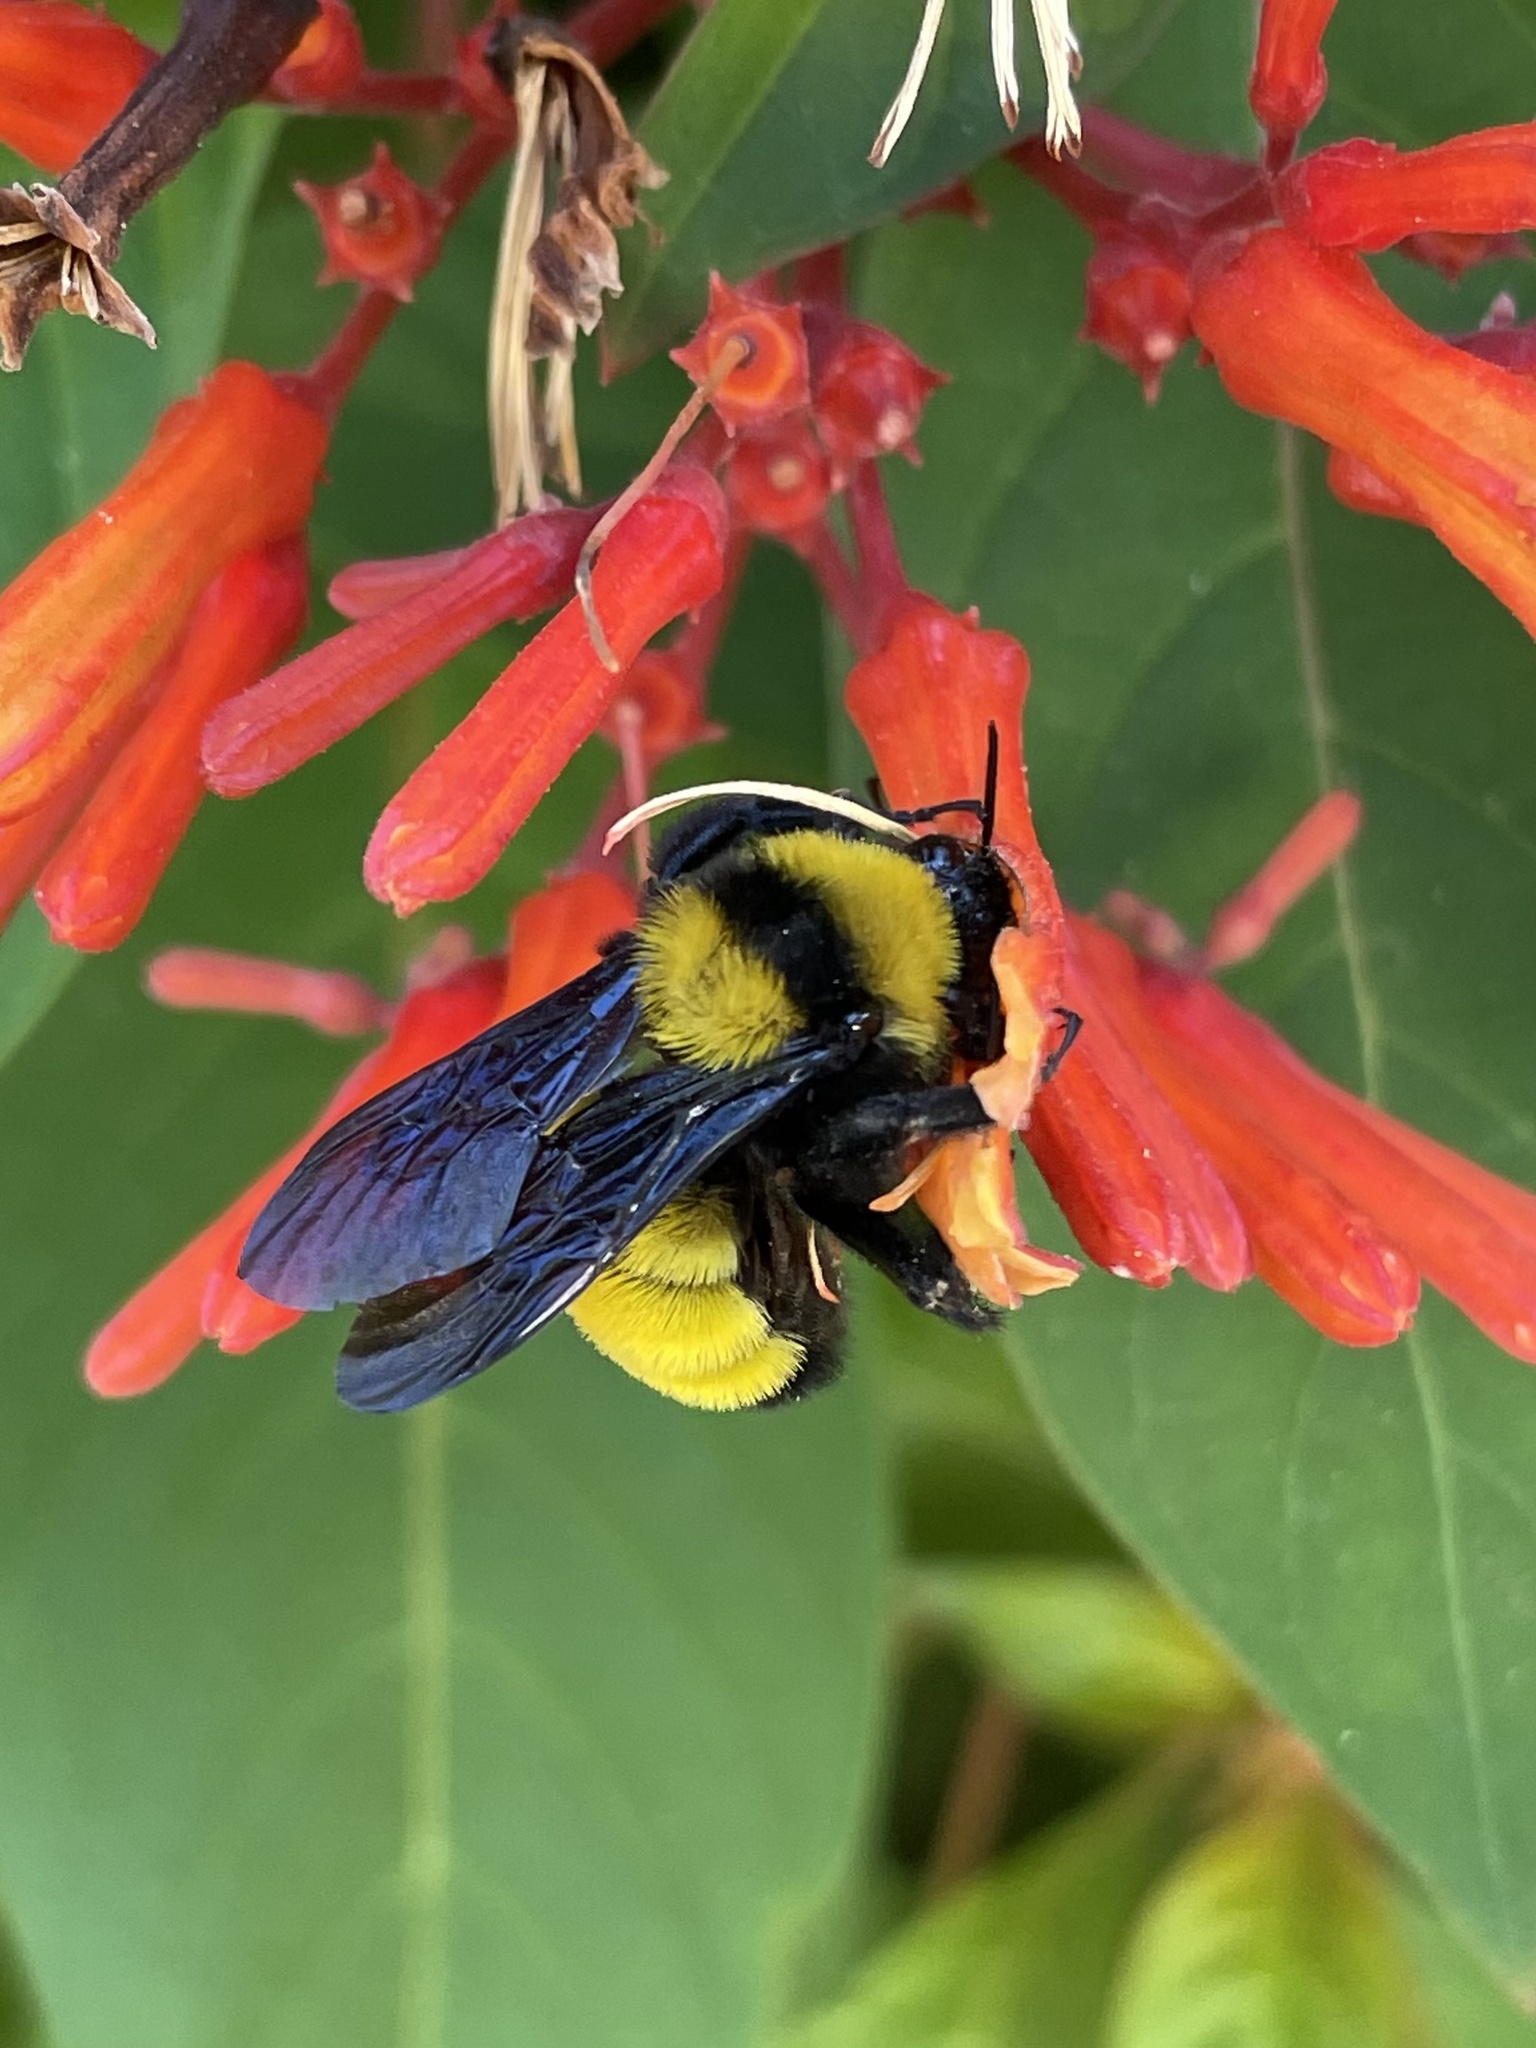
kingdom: Animalia
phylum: Arthropoda
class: Insecta
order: Hymenoptera
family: Apidae
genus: Bombus
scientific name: Bombus sonorus
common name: Sonoran bumble bee
